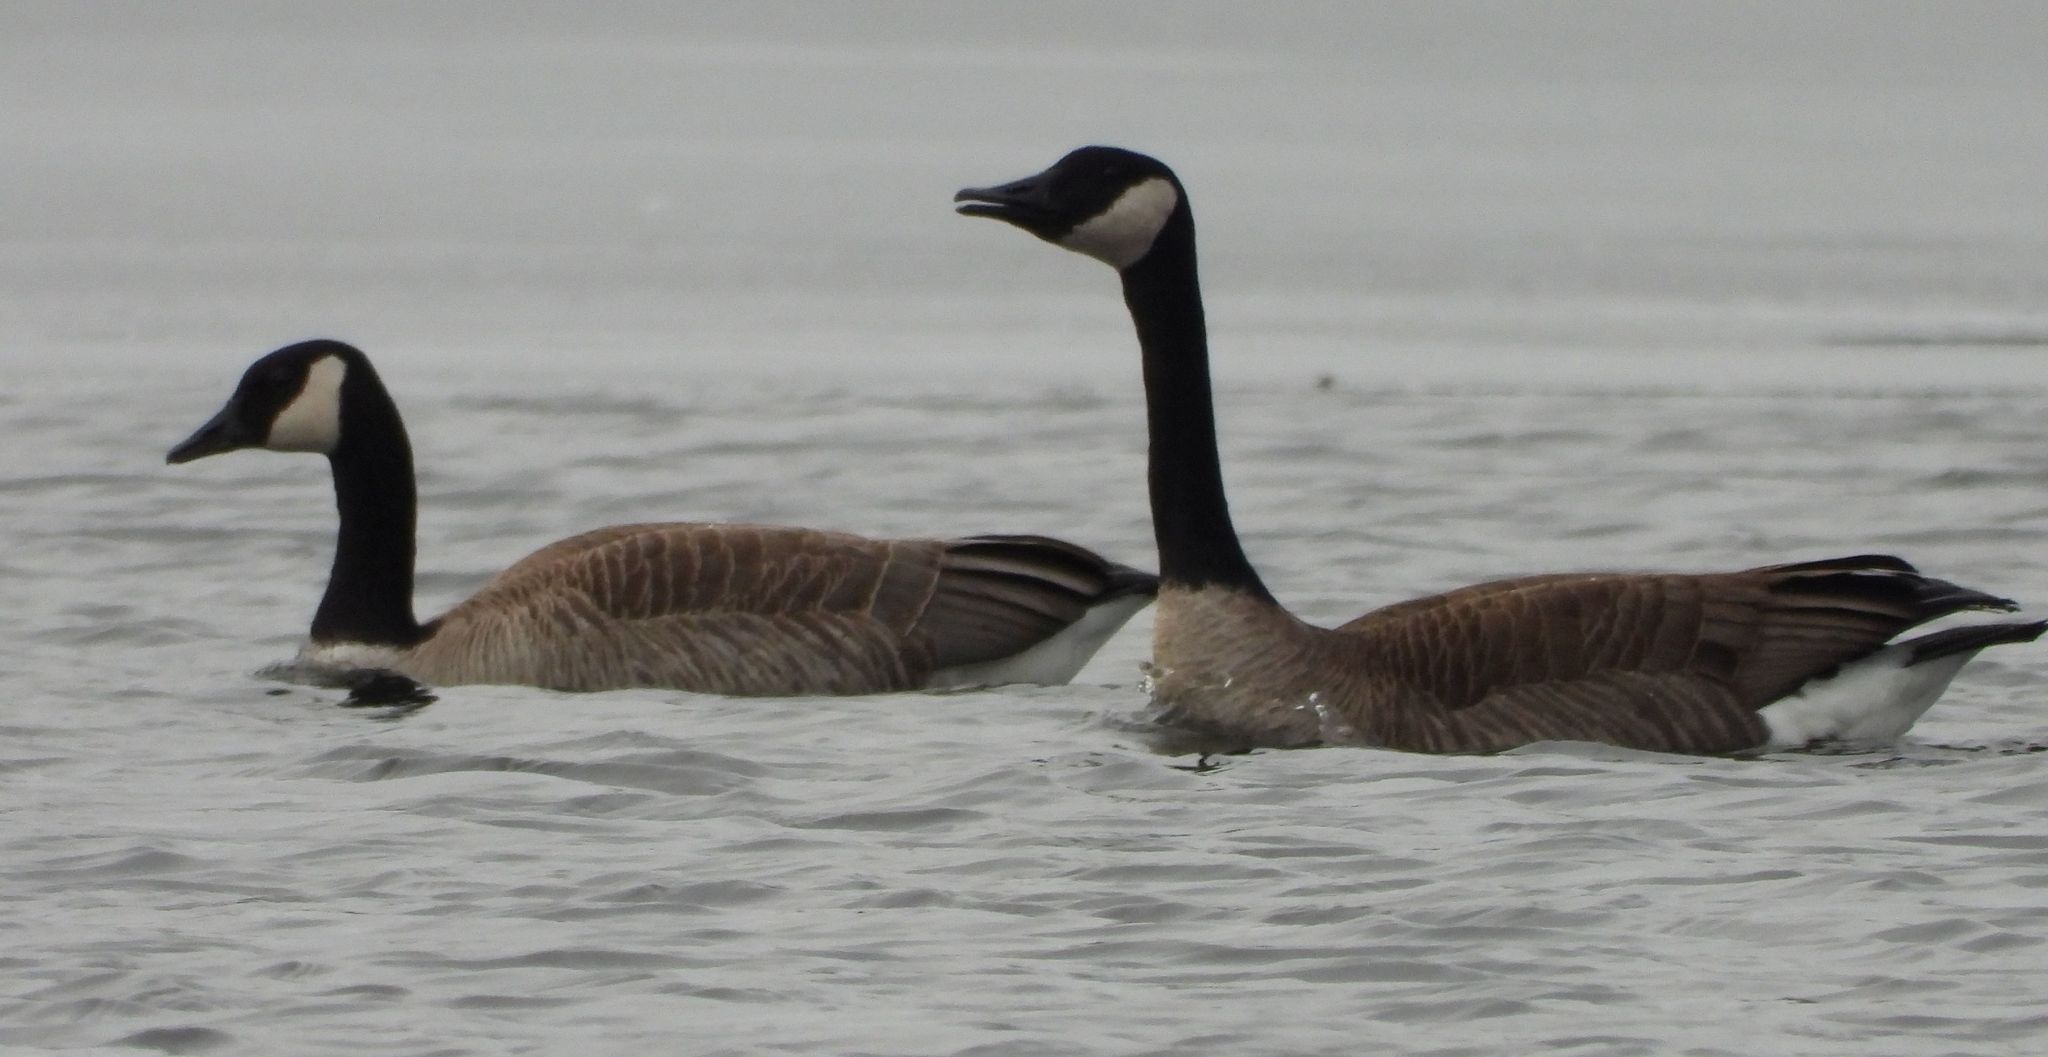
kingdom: Animalia
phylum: Chordata
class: Aves
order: Anseriformes
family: Anatidae
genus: Branta
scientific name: Branta canadensis
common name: Canada goose
